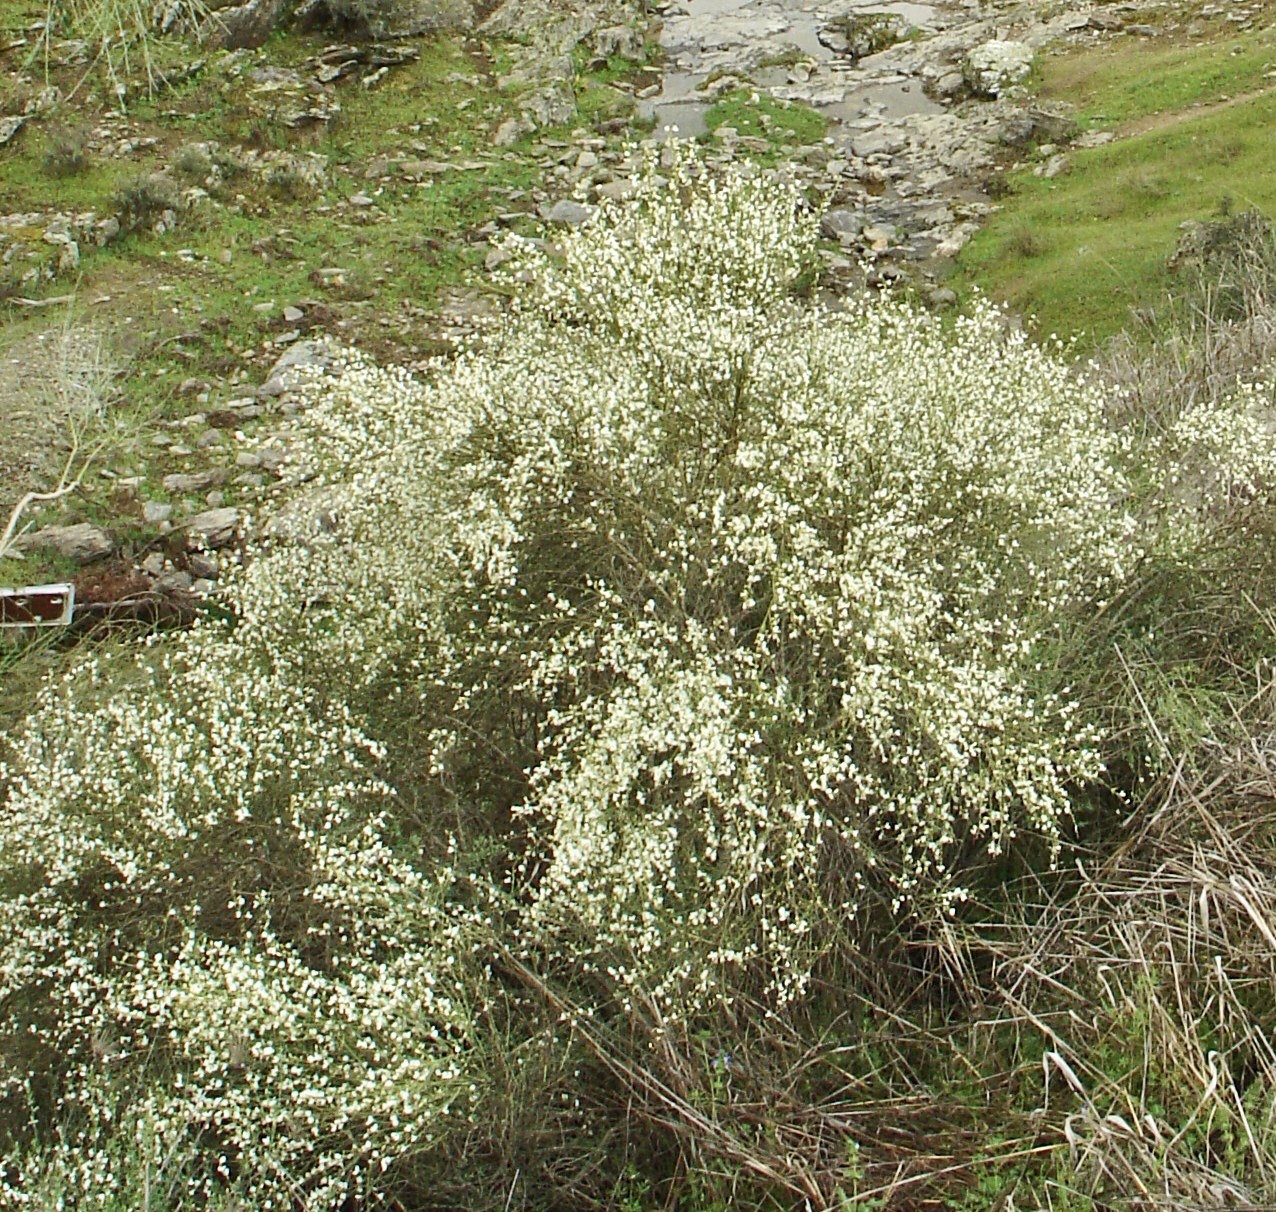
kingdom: Plantae
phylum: Tracheophyta
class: Magnoliopsida
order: Fabales
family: Fabaceae
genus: Cytisus
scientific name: Cytisus multiflorus
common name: White broom
